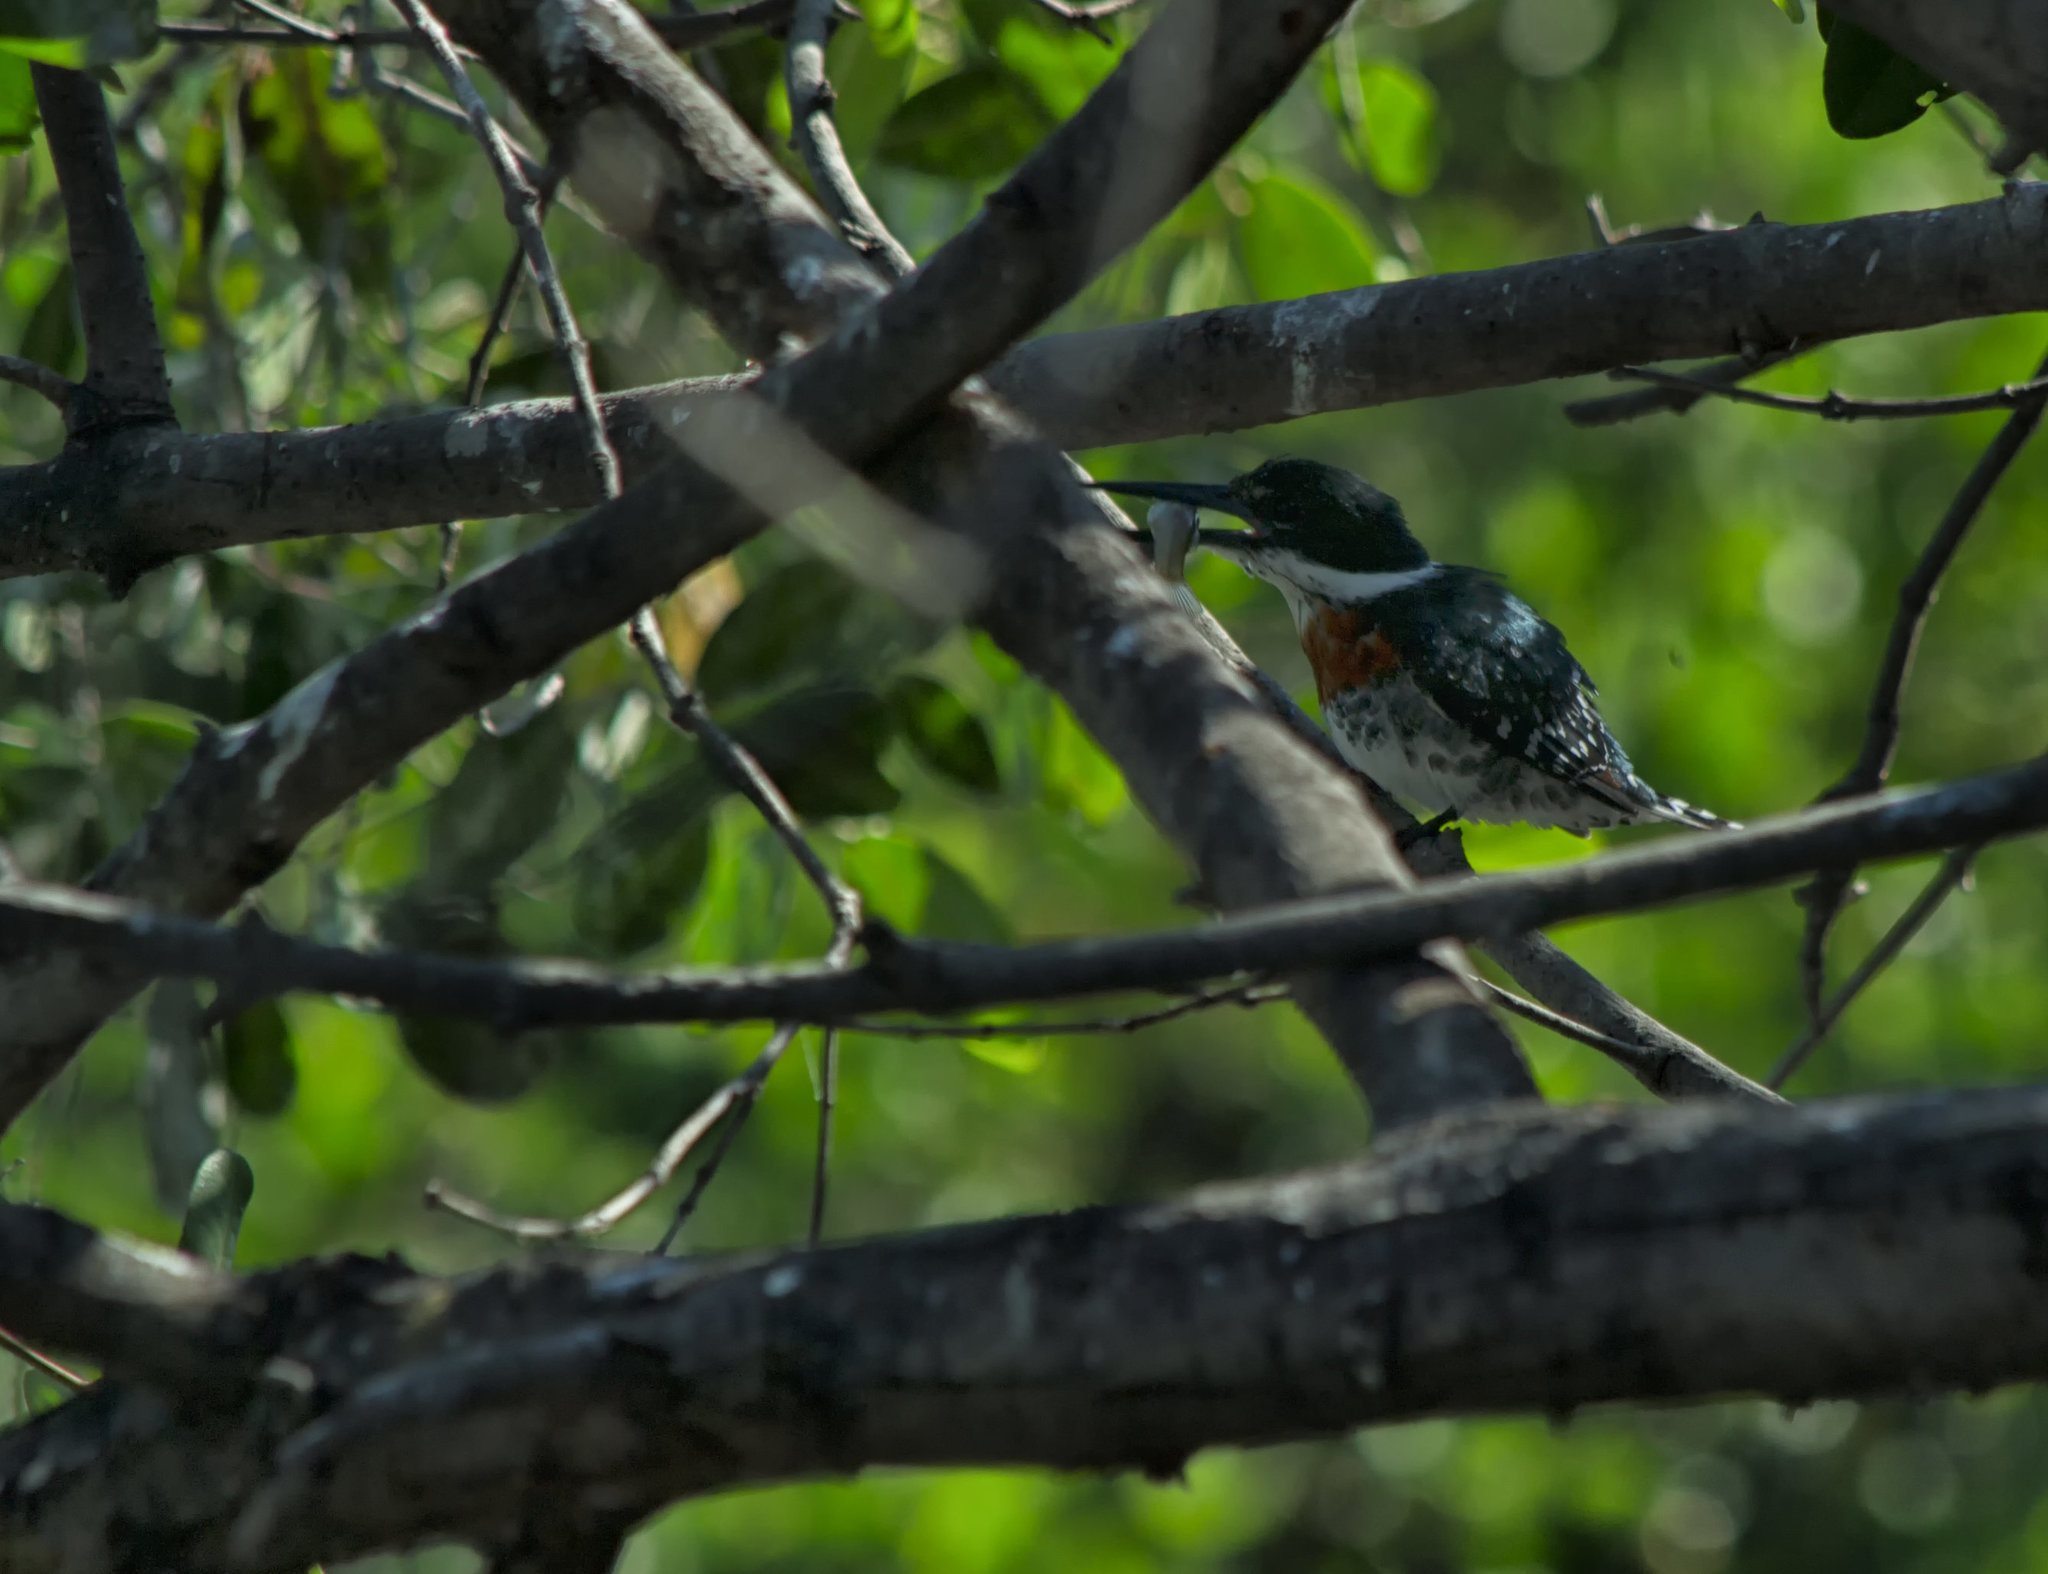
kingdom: Animalia
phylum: Chordata
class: Aves
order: Coraciiformes
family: Alcedinidae
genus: Chloroceryle
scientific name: Chloroceryle americana
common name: Green kingfisher
